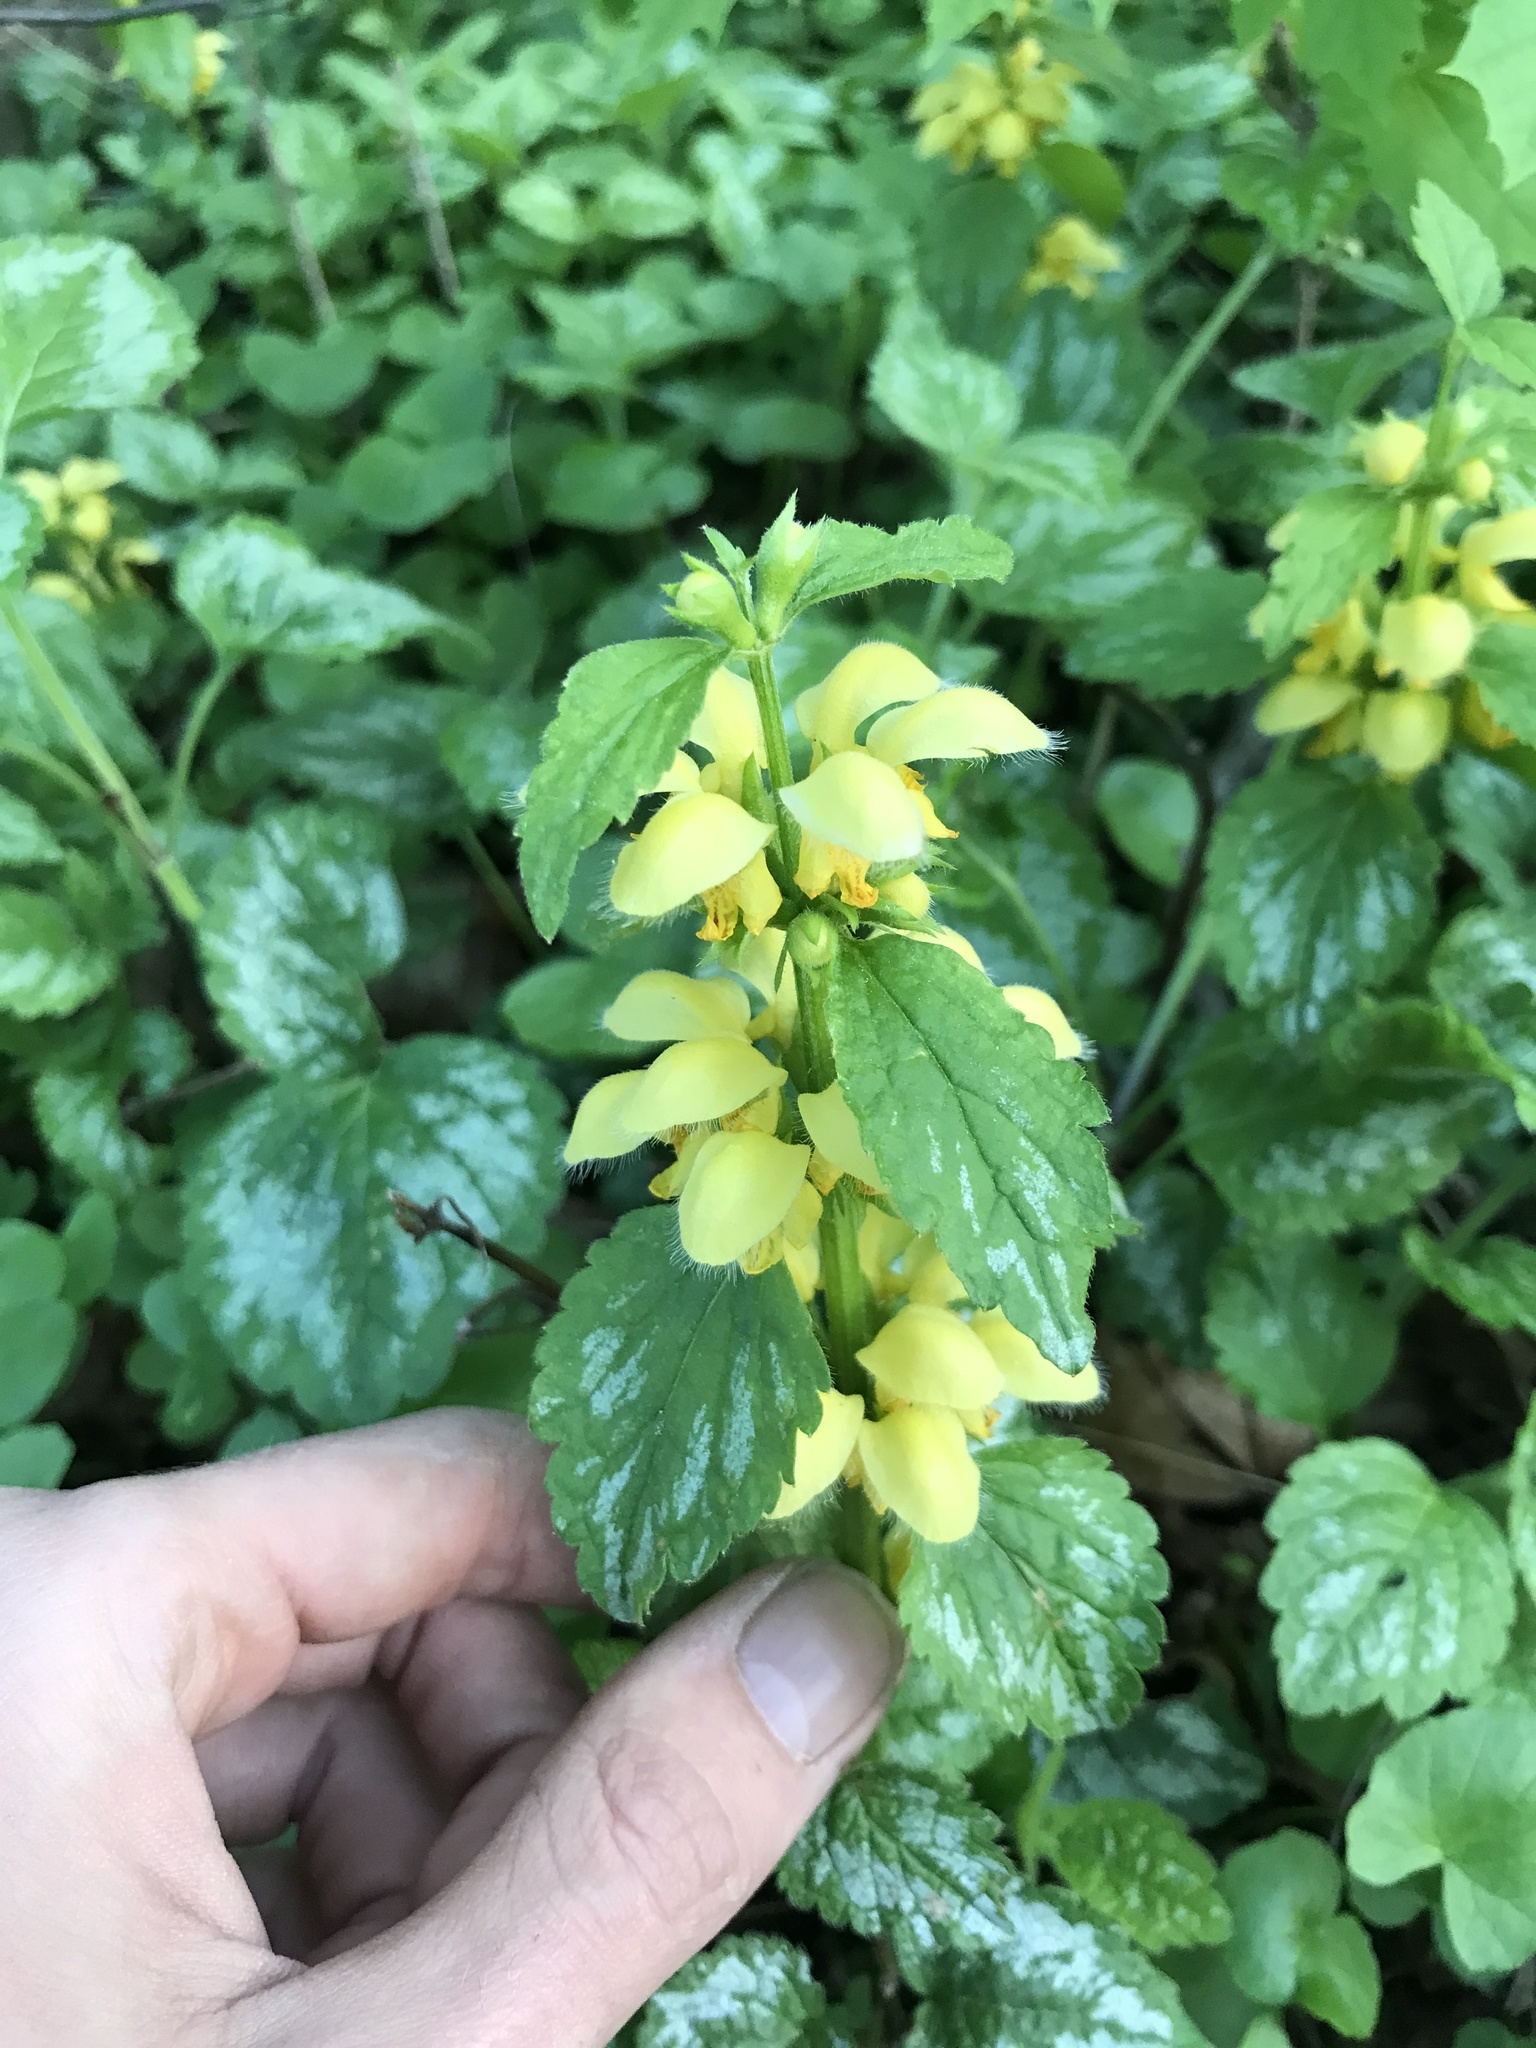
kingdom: Plantae
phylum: Tracheophyta
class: Magnoliopsida
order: Lamiales
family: Lamiaceae
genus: Lamium
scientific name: Lamium galeobdolon
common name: Yellow archangel
